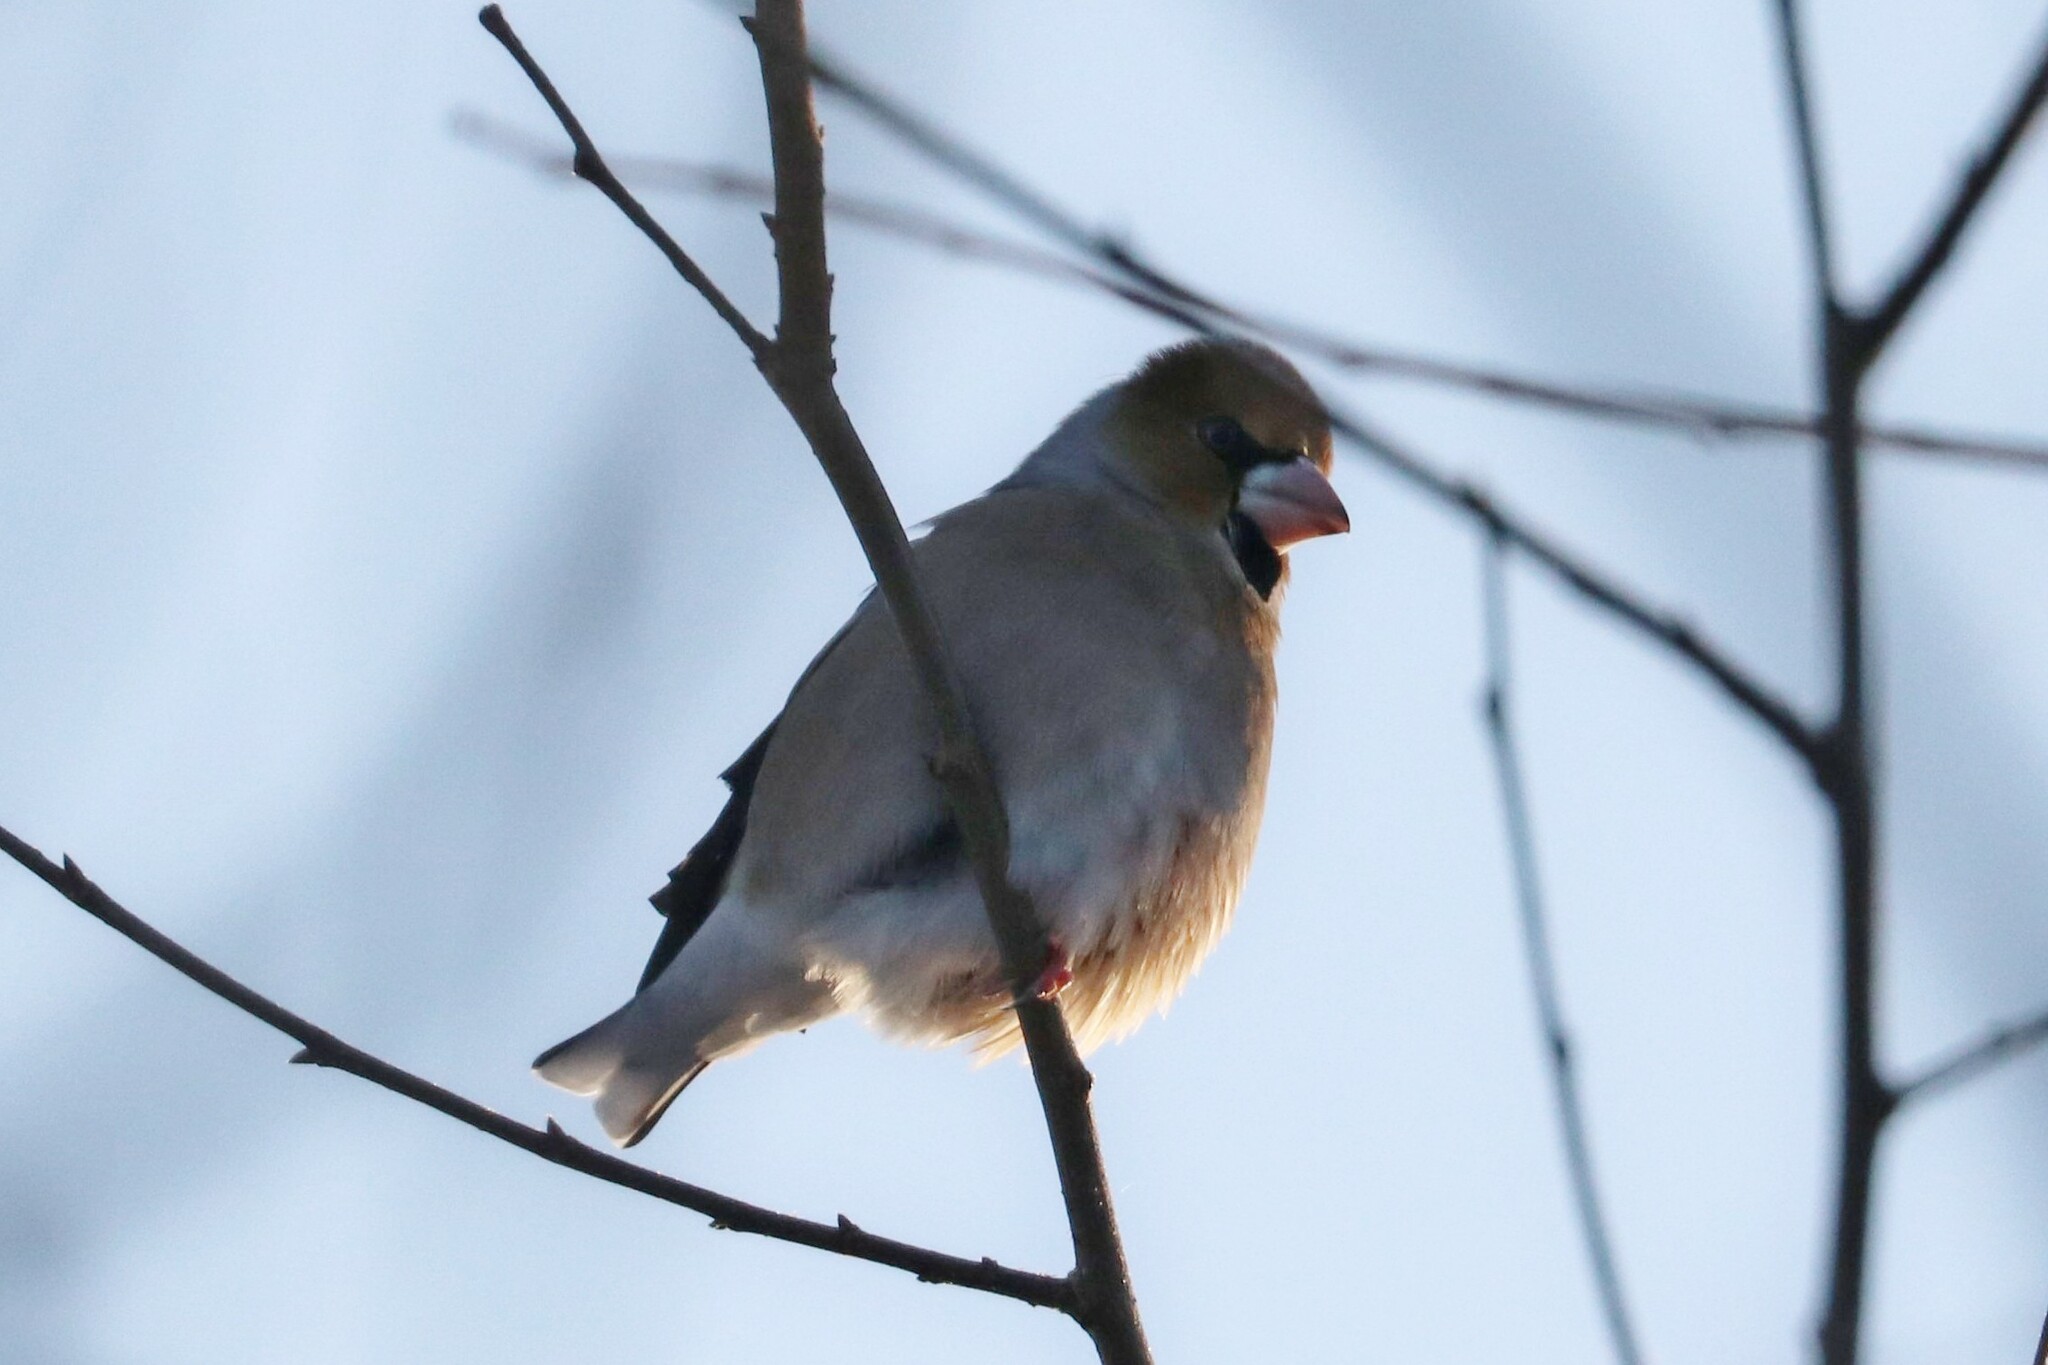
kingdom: Animalia
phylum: Chordata
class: Aves
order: Passeriformes
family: Fringillidae
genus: Coccothraustes
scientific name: Coccothraustes coccothraustes
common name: Hawfinch
